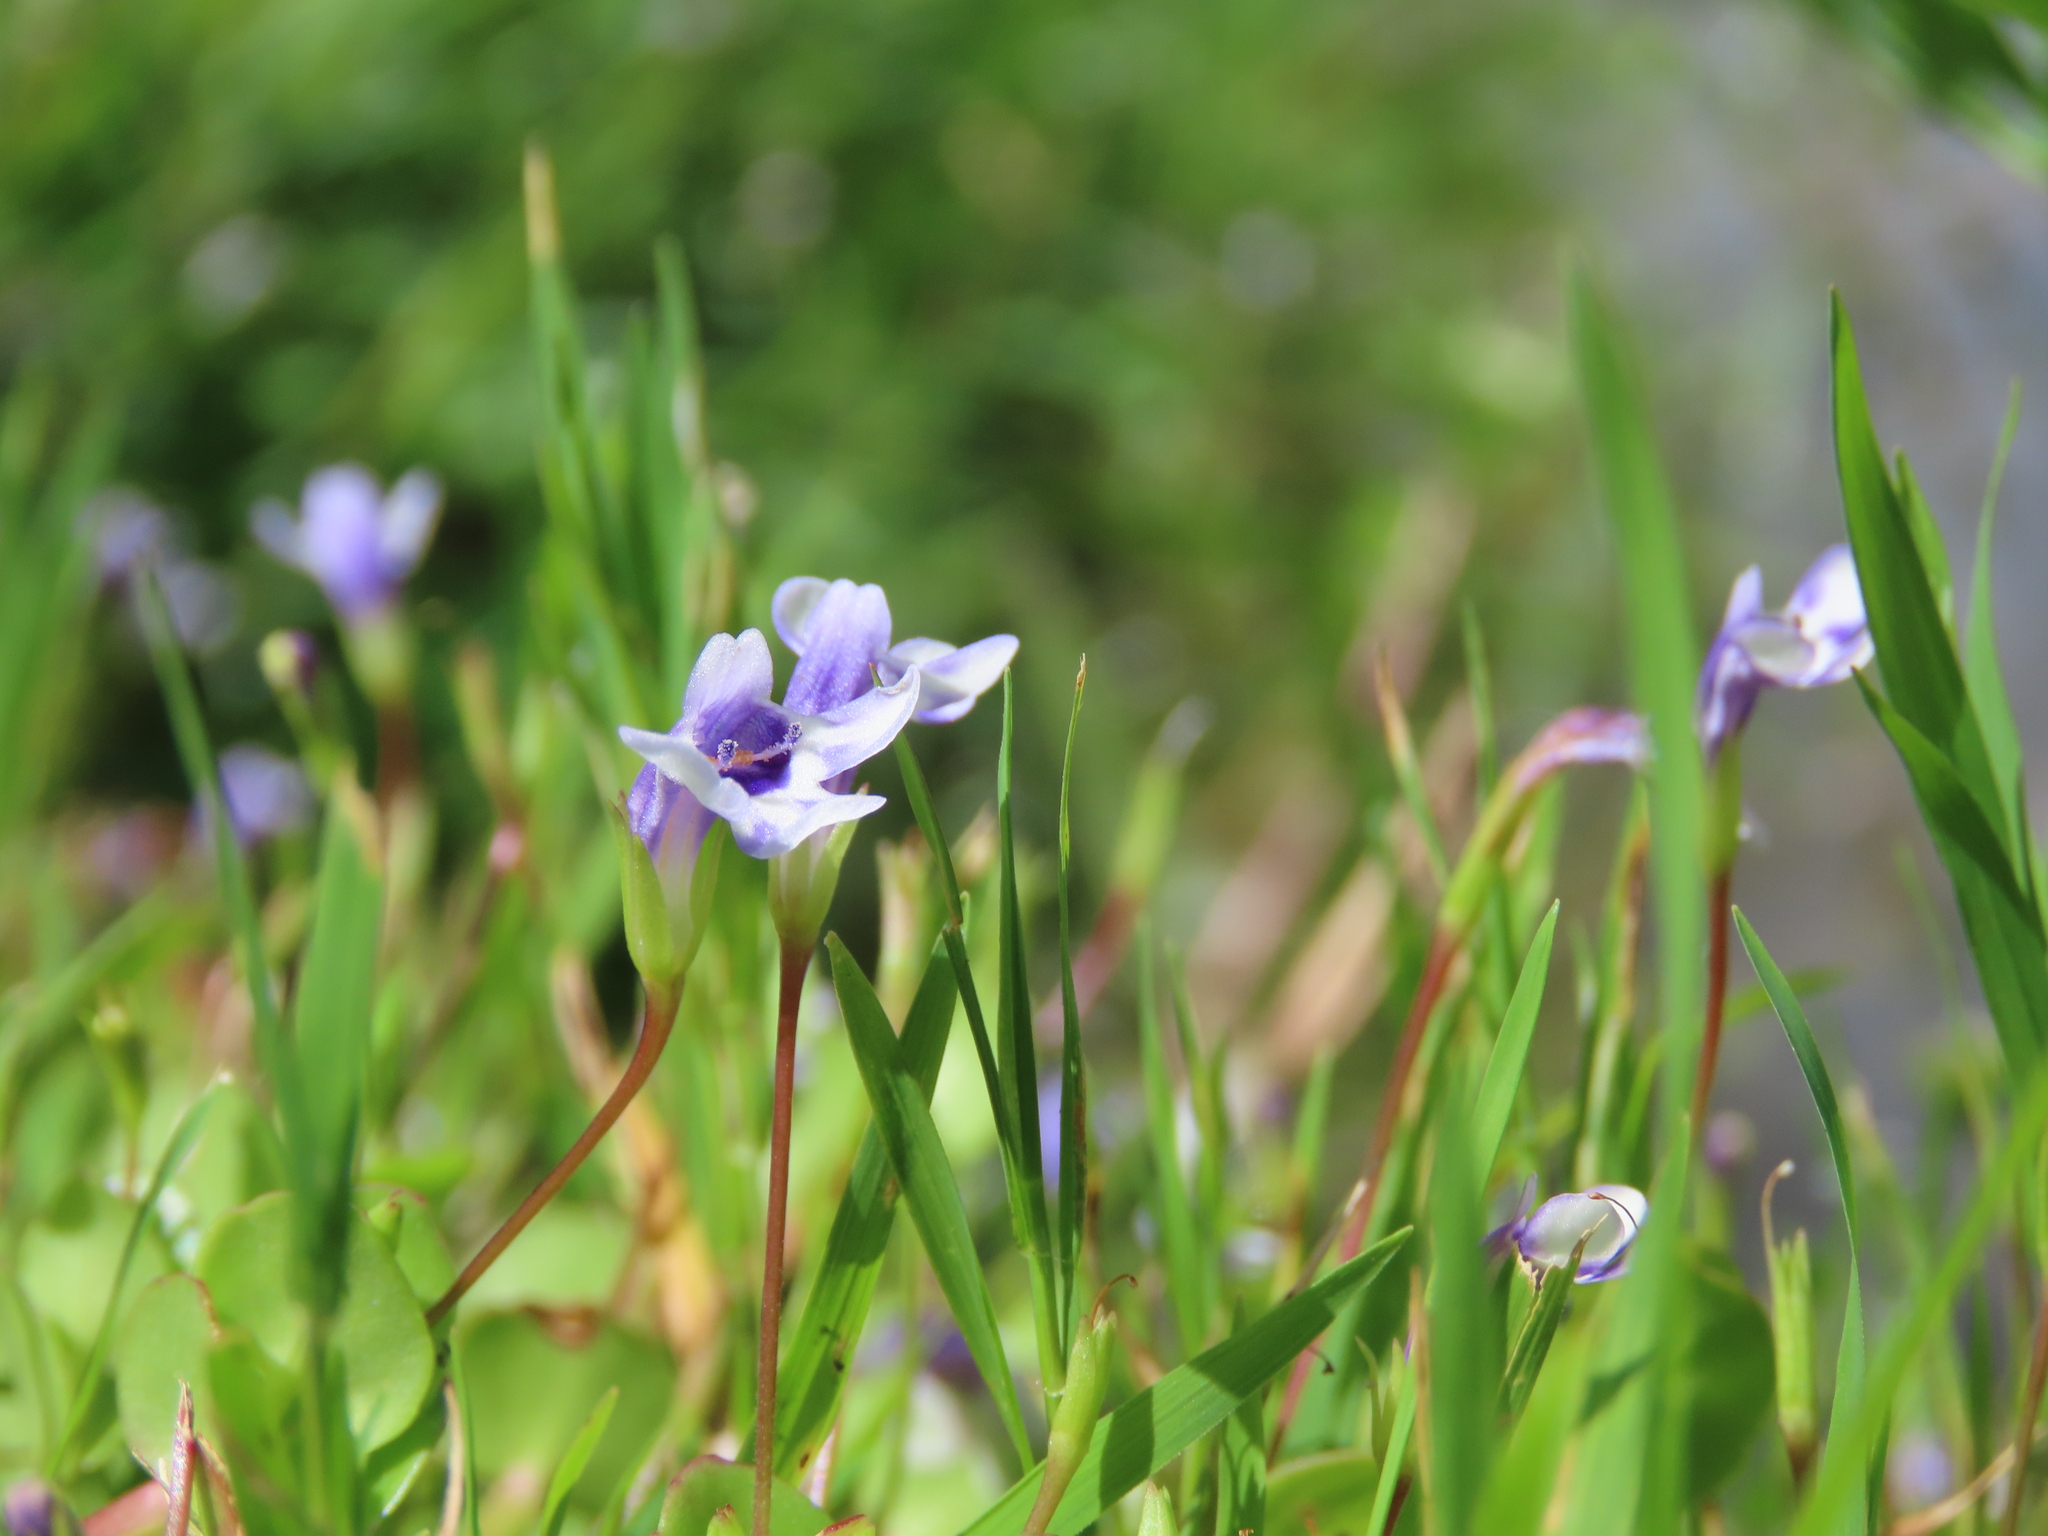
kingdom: Plantae
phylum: Tracheophyta
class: Magnoliopsida
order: Lamiales
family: Linderniaceae
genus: Lindernia
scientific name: Lindernia grandiflora
